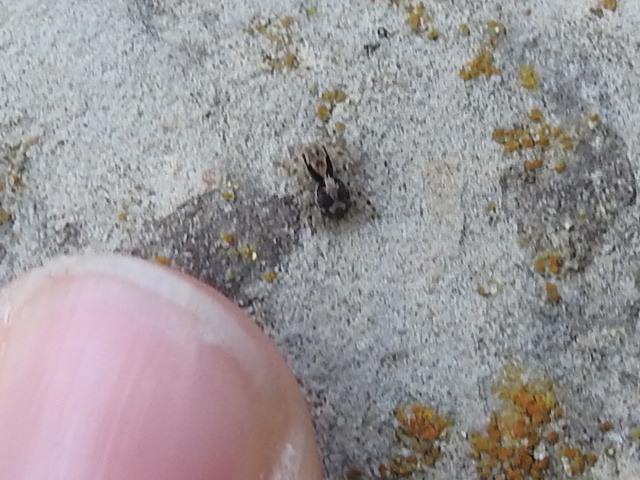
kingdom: Animalia
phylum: Arthropoda
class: Arachnida
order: Araneae
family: Salticidae
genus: Naphrys
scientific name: Naphrys pulex
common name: Flea jumping spider
